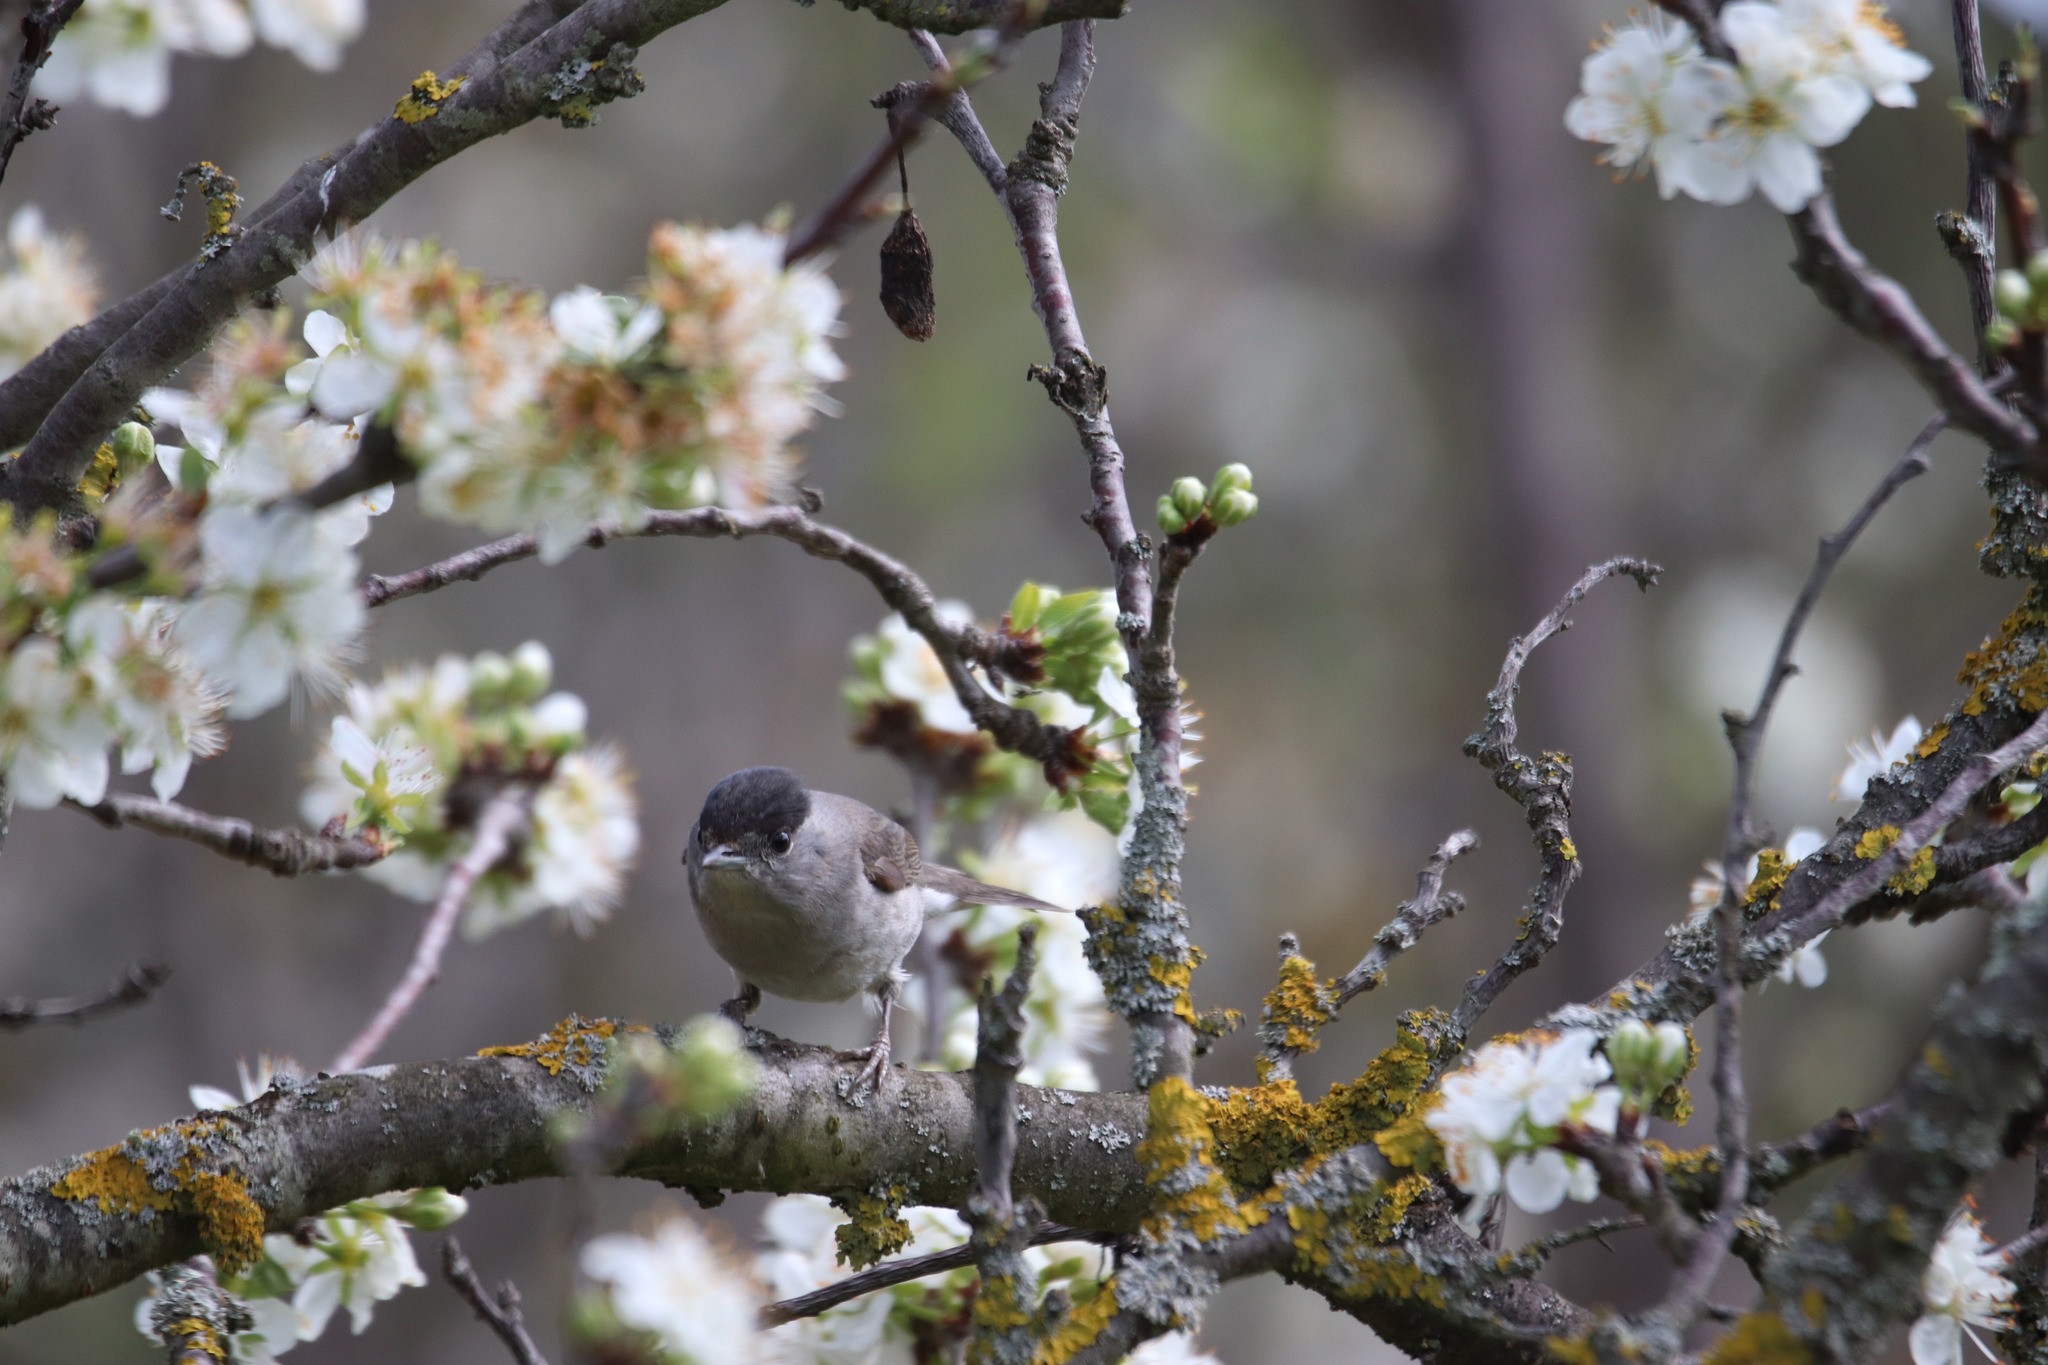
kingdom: Animalia
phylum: Chordata
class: Aves
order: Passeriformes
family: Sylviidae
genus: Sylvia
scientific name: Sylvia atricapilla
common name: Eurasian blackcap
